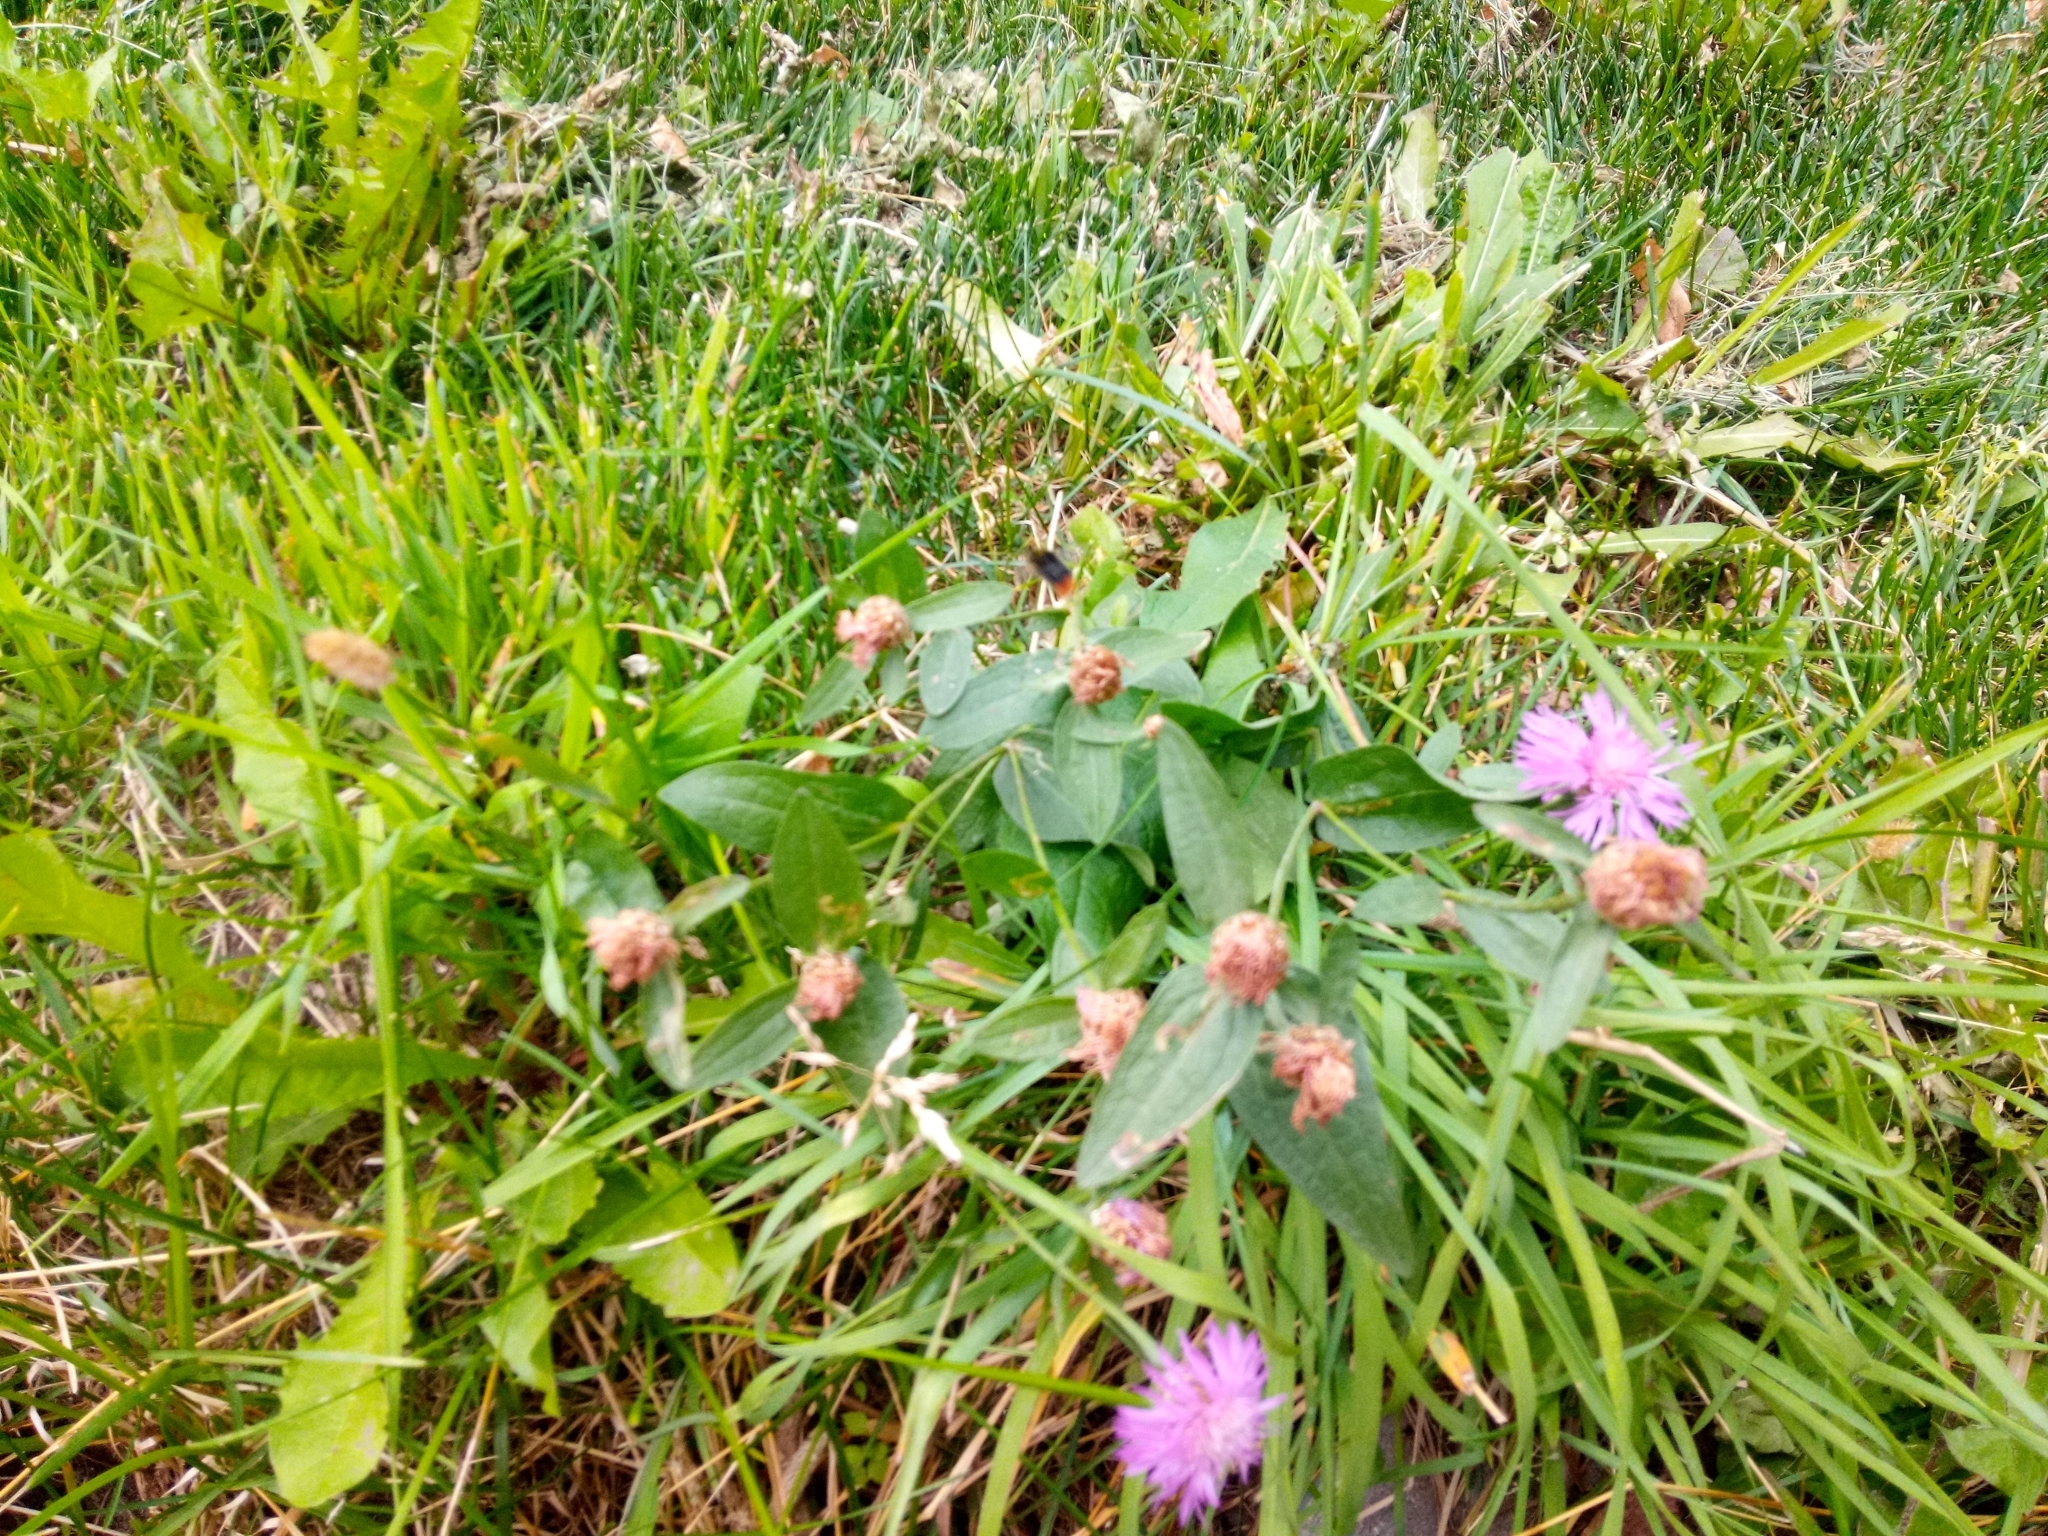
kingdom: Plantae
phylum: Tracheophyta
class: Magnoliopsida
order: Asterales
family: Asteraceae
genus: Centaurea
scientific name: Centaurea jacea
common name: Brown knapweed
